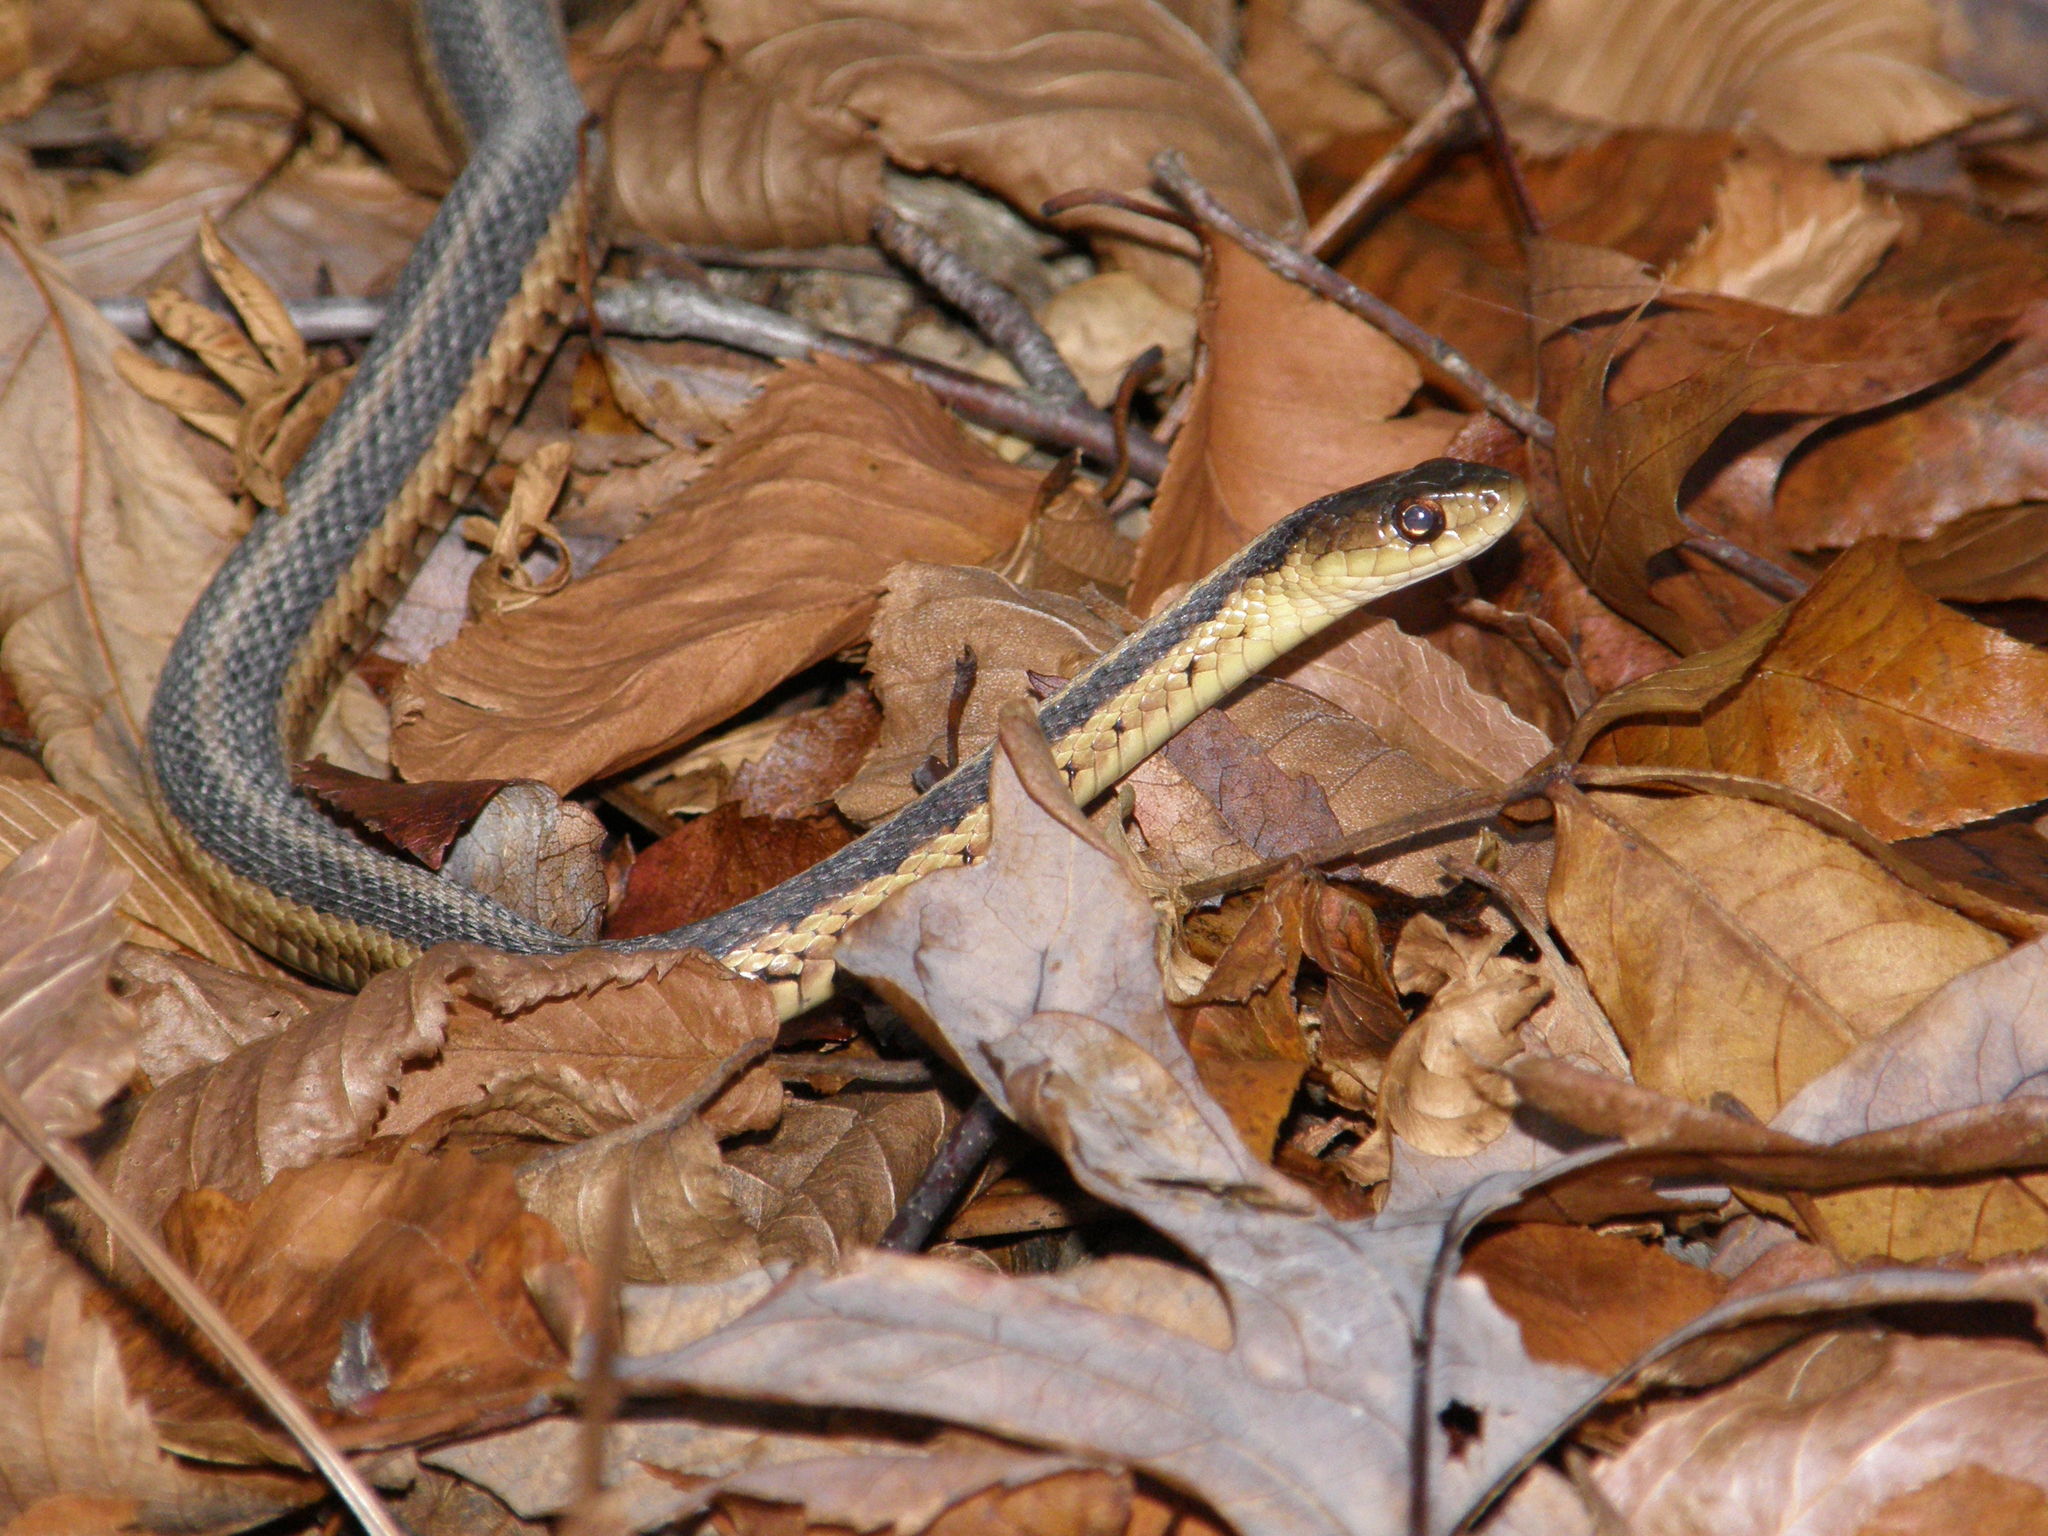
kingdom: Animalia
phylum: Chordata
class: Squamata
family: Colubridae
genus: Thamnophis
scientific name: Thamnophis sirtalis
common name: Common garter snake
